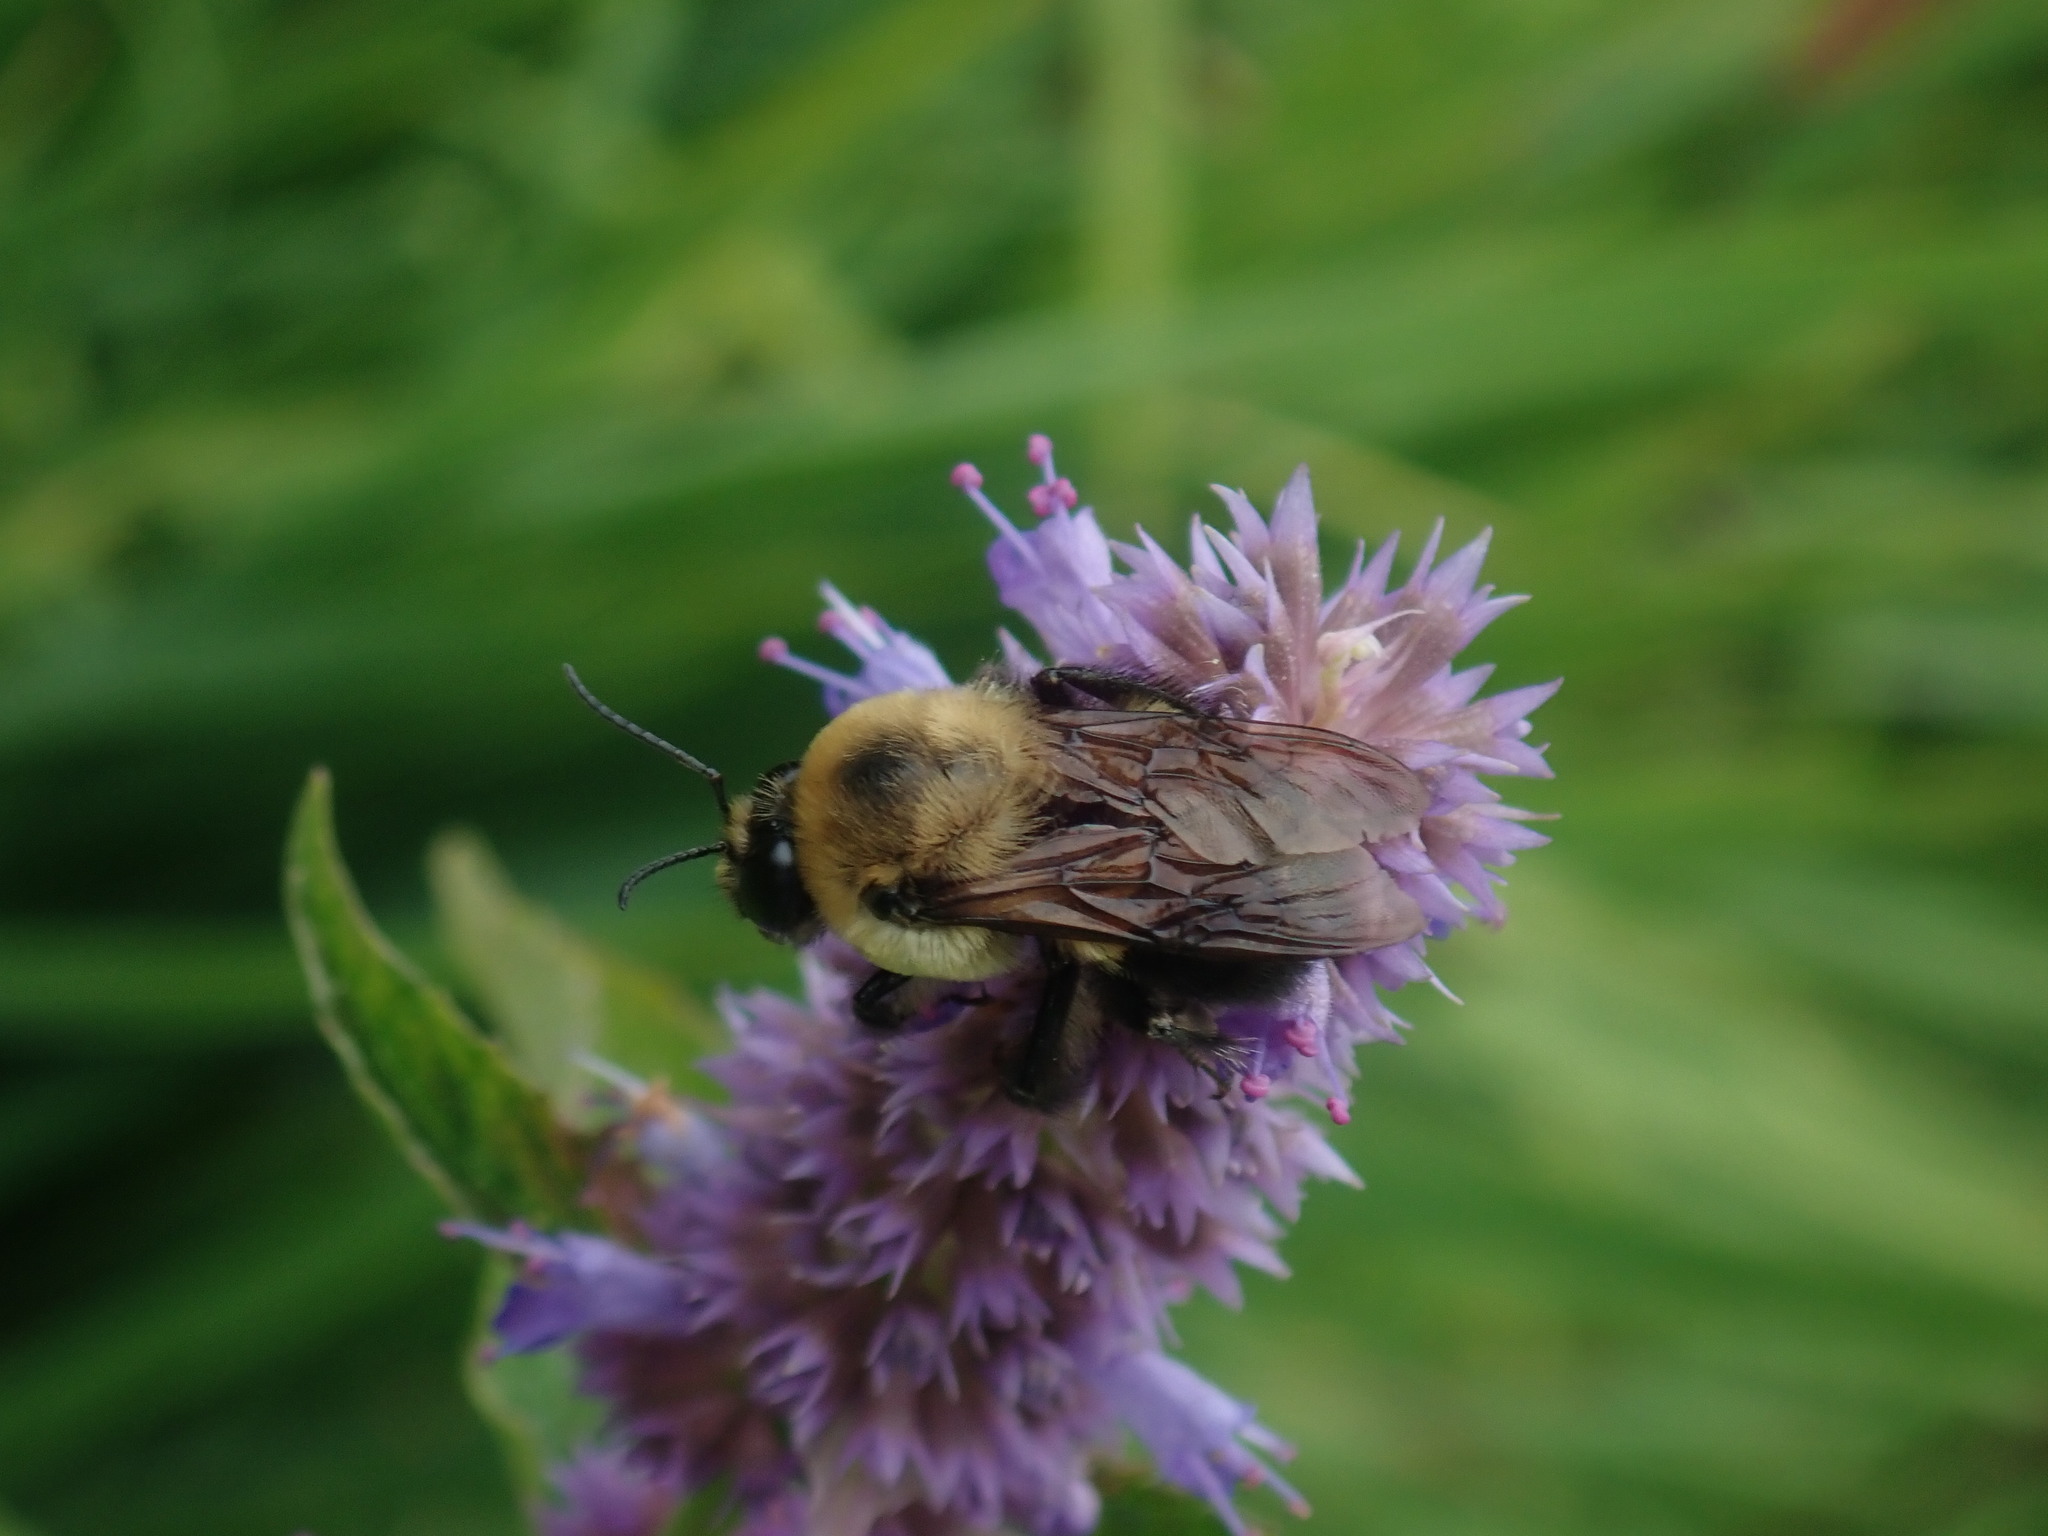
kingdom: Animalia
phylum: Arthropoda
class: Insecta
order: Hymenoptera
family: Apidae
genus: Bombus
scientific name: Bombus griseocollis
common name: Brown-belted bumble bee
